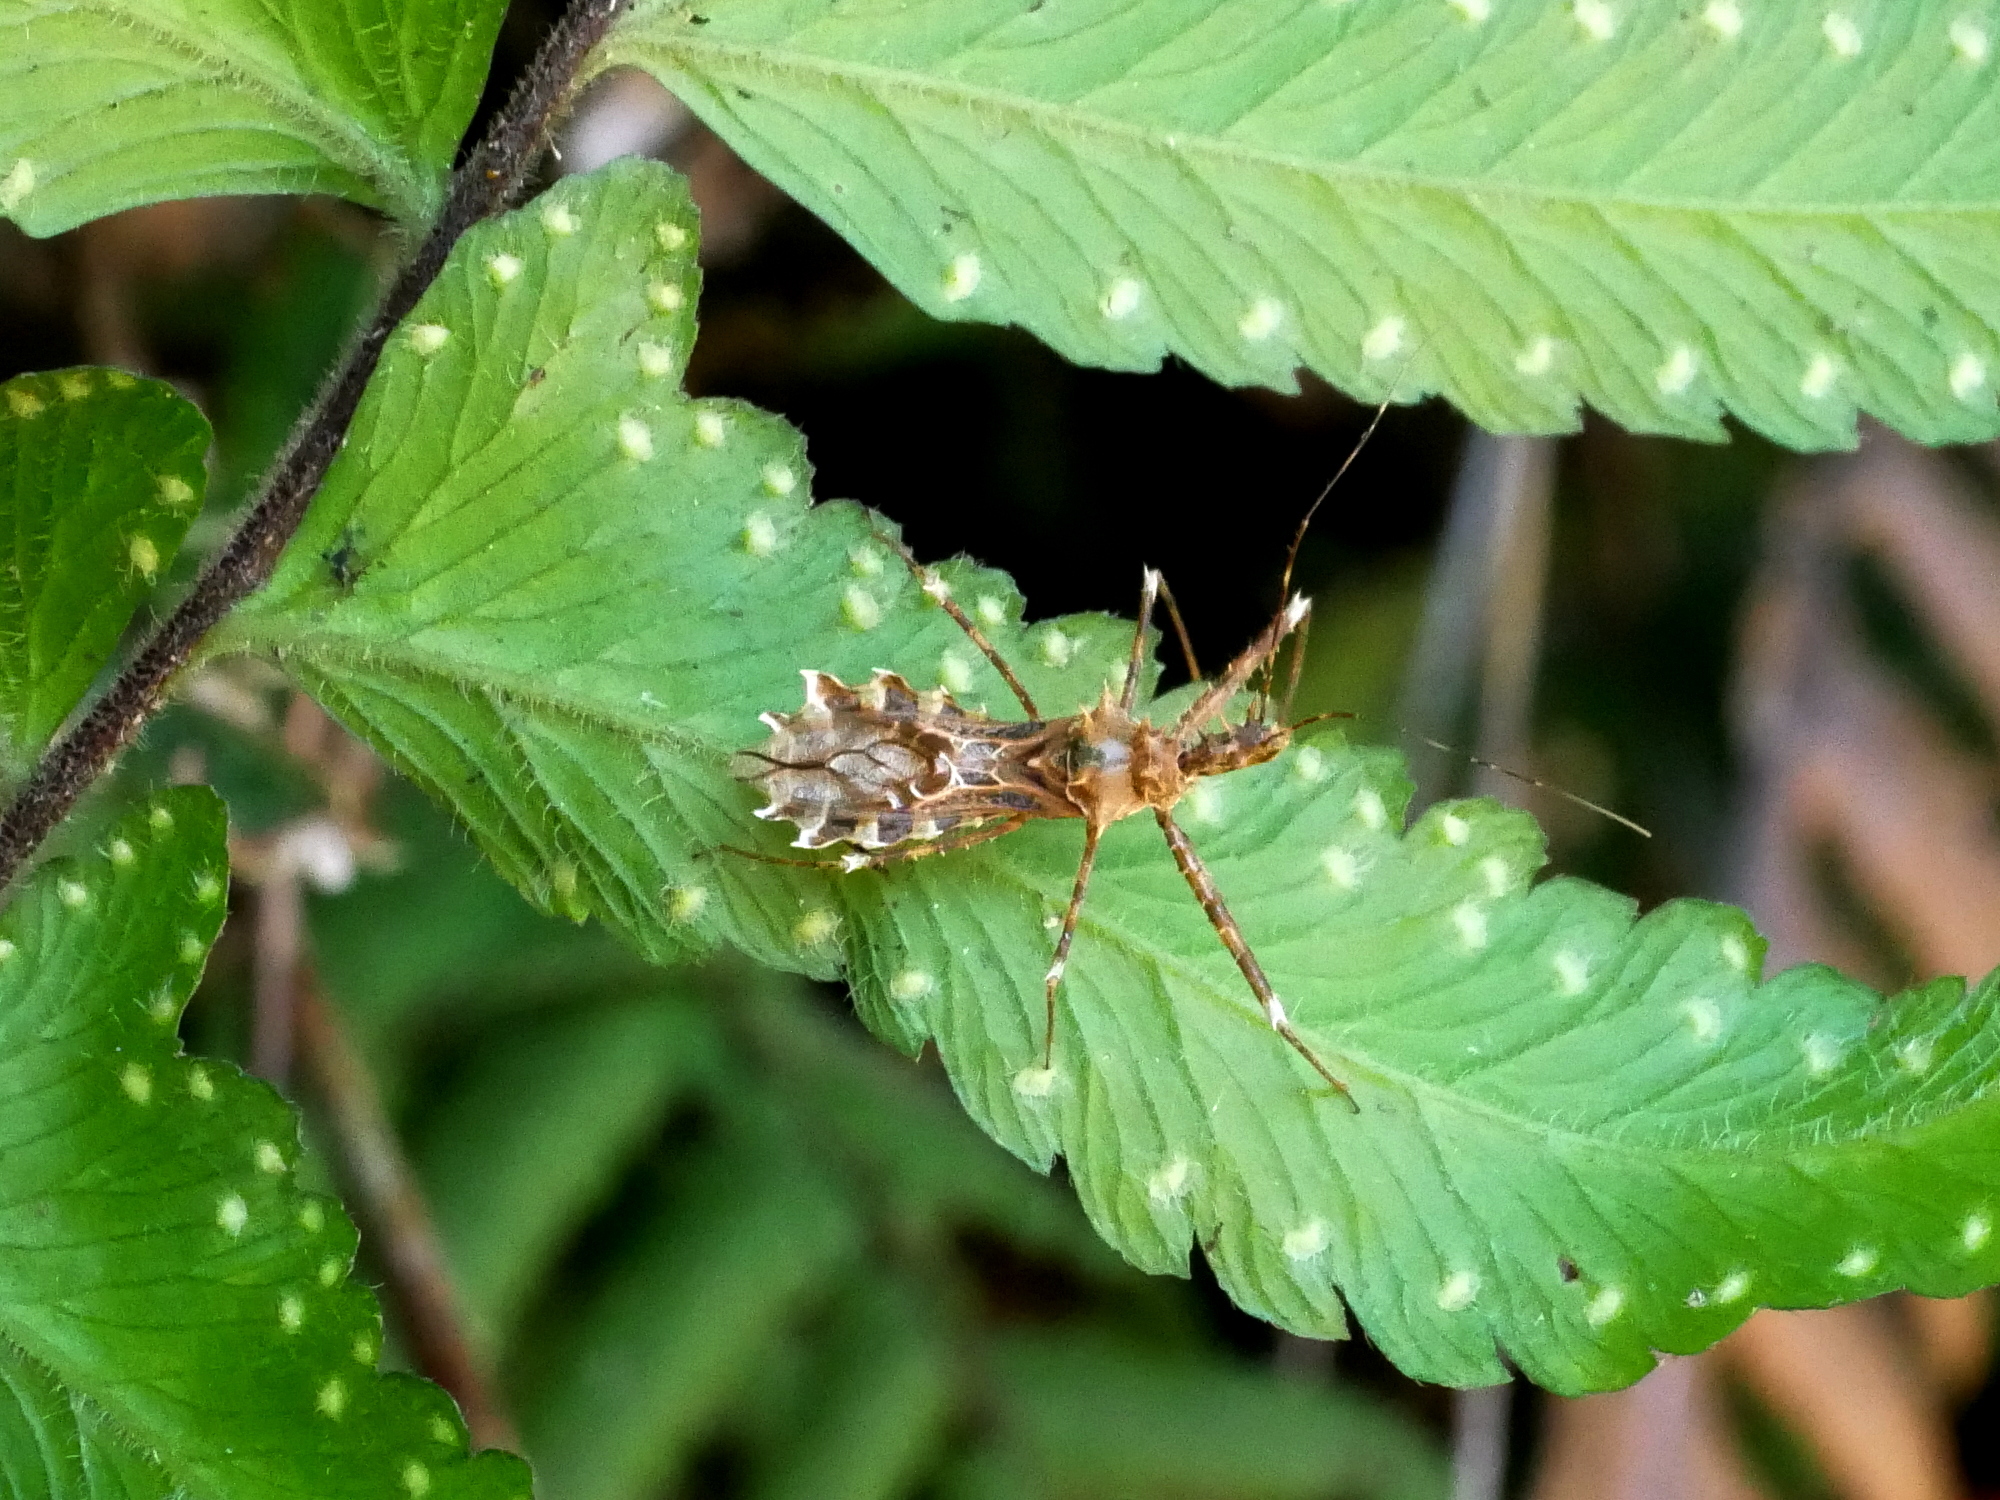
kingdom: Animalia
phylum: Arthropoda
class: Insecta
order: Hemiptera
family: Reduviidae
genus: Sclomina
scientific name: Sclomina erinacea
